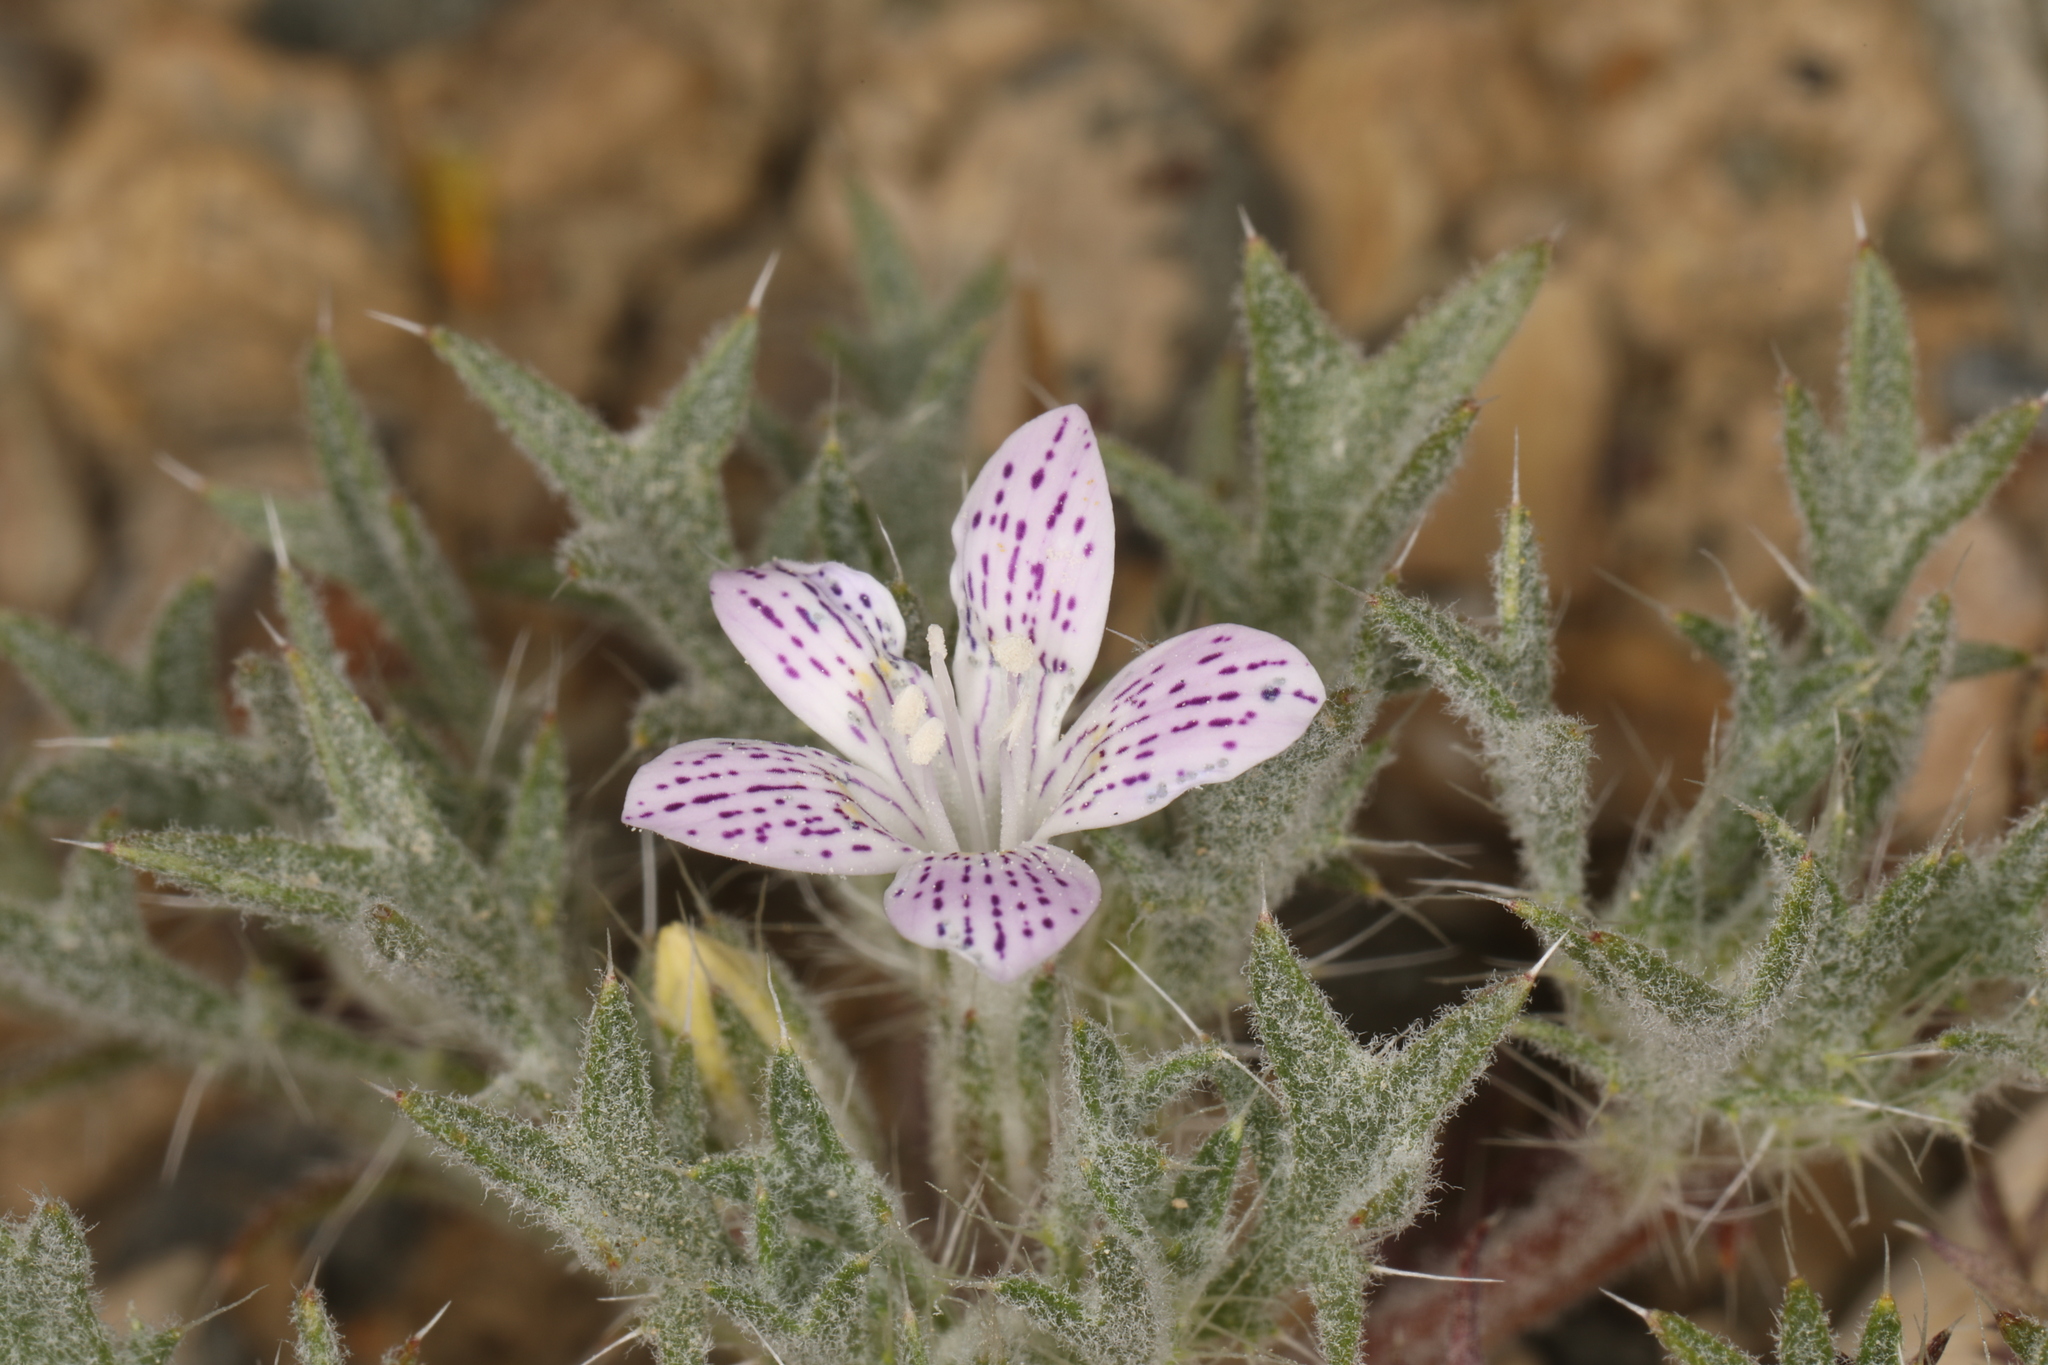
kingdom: Plantae
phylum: Tracheophyta
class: Magnoliopsida
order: Ericales
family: Polemoniaceae
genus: Langloisia
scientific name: Langloisia setosissima
